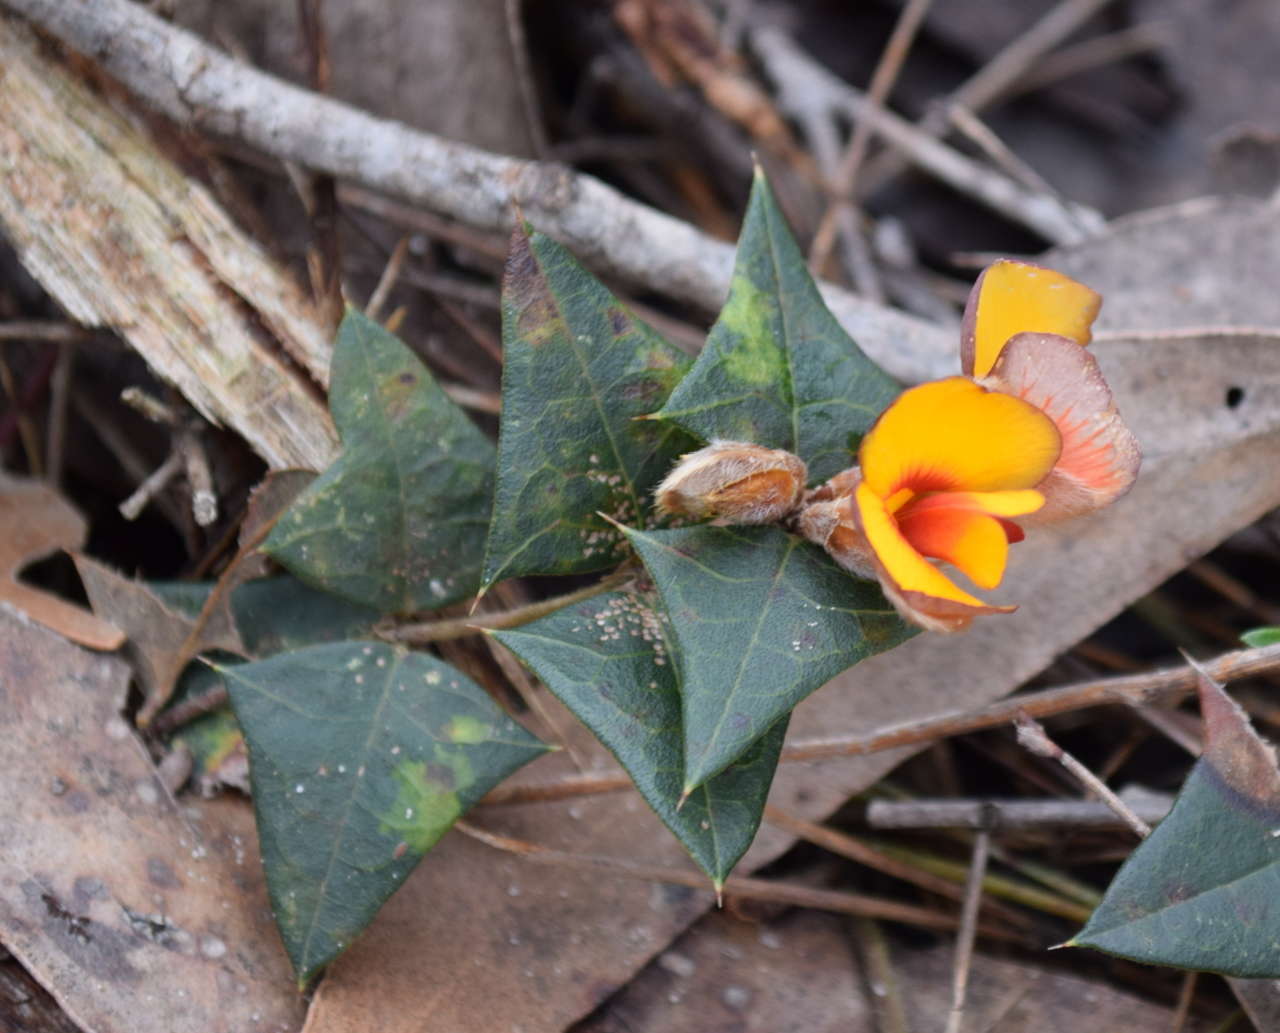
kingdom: Plantae
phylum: Tracheophyta
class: Magnoliopsida
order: Fabales
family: Fabaceae
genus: Platylobium
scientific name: Platylobium obtusangulum
